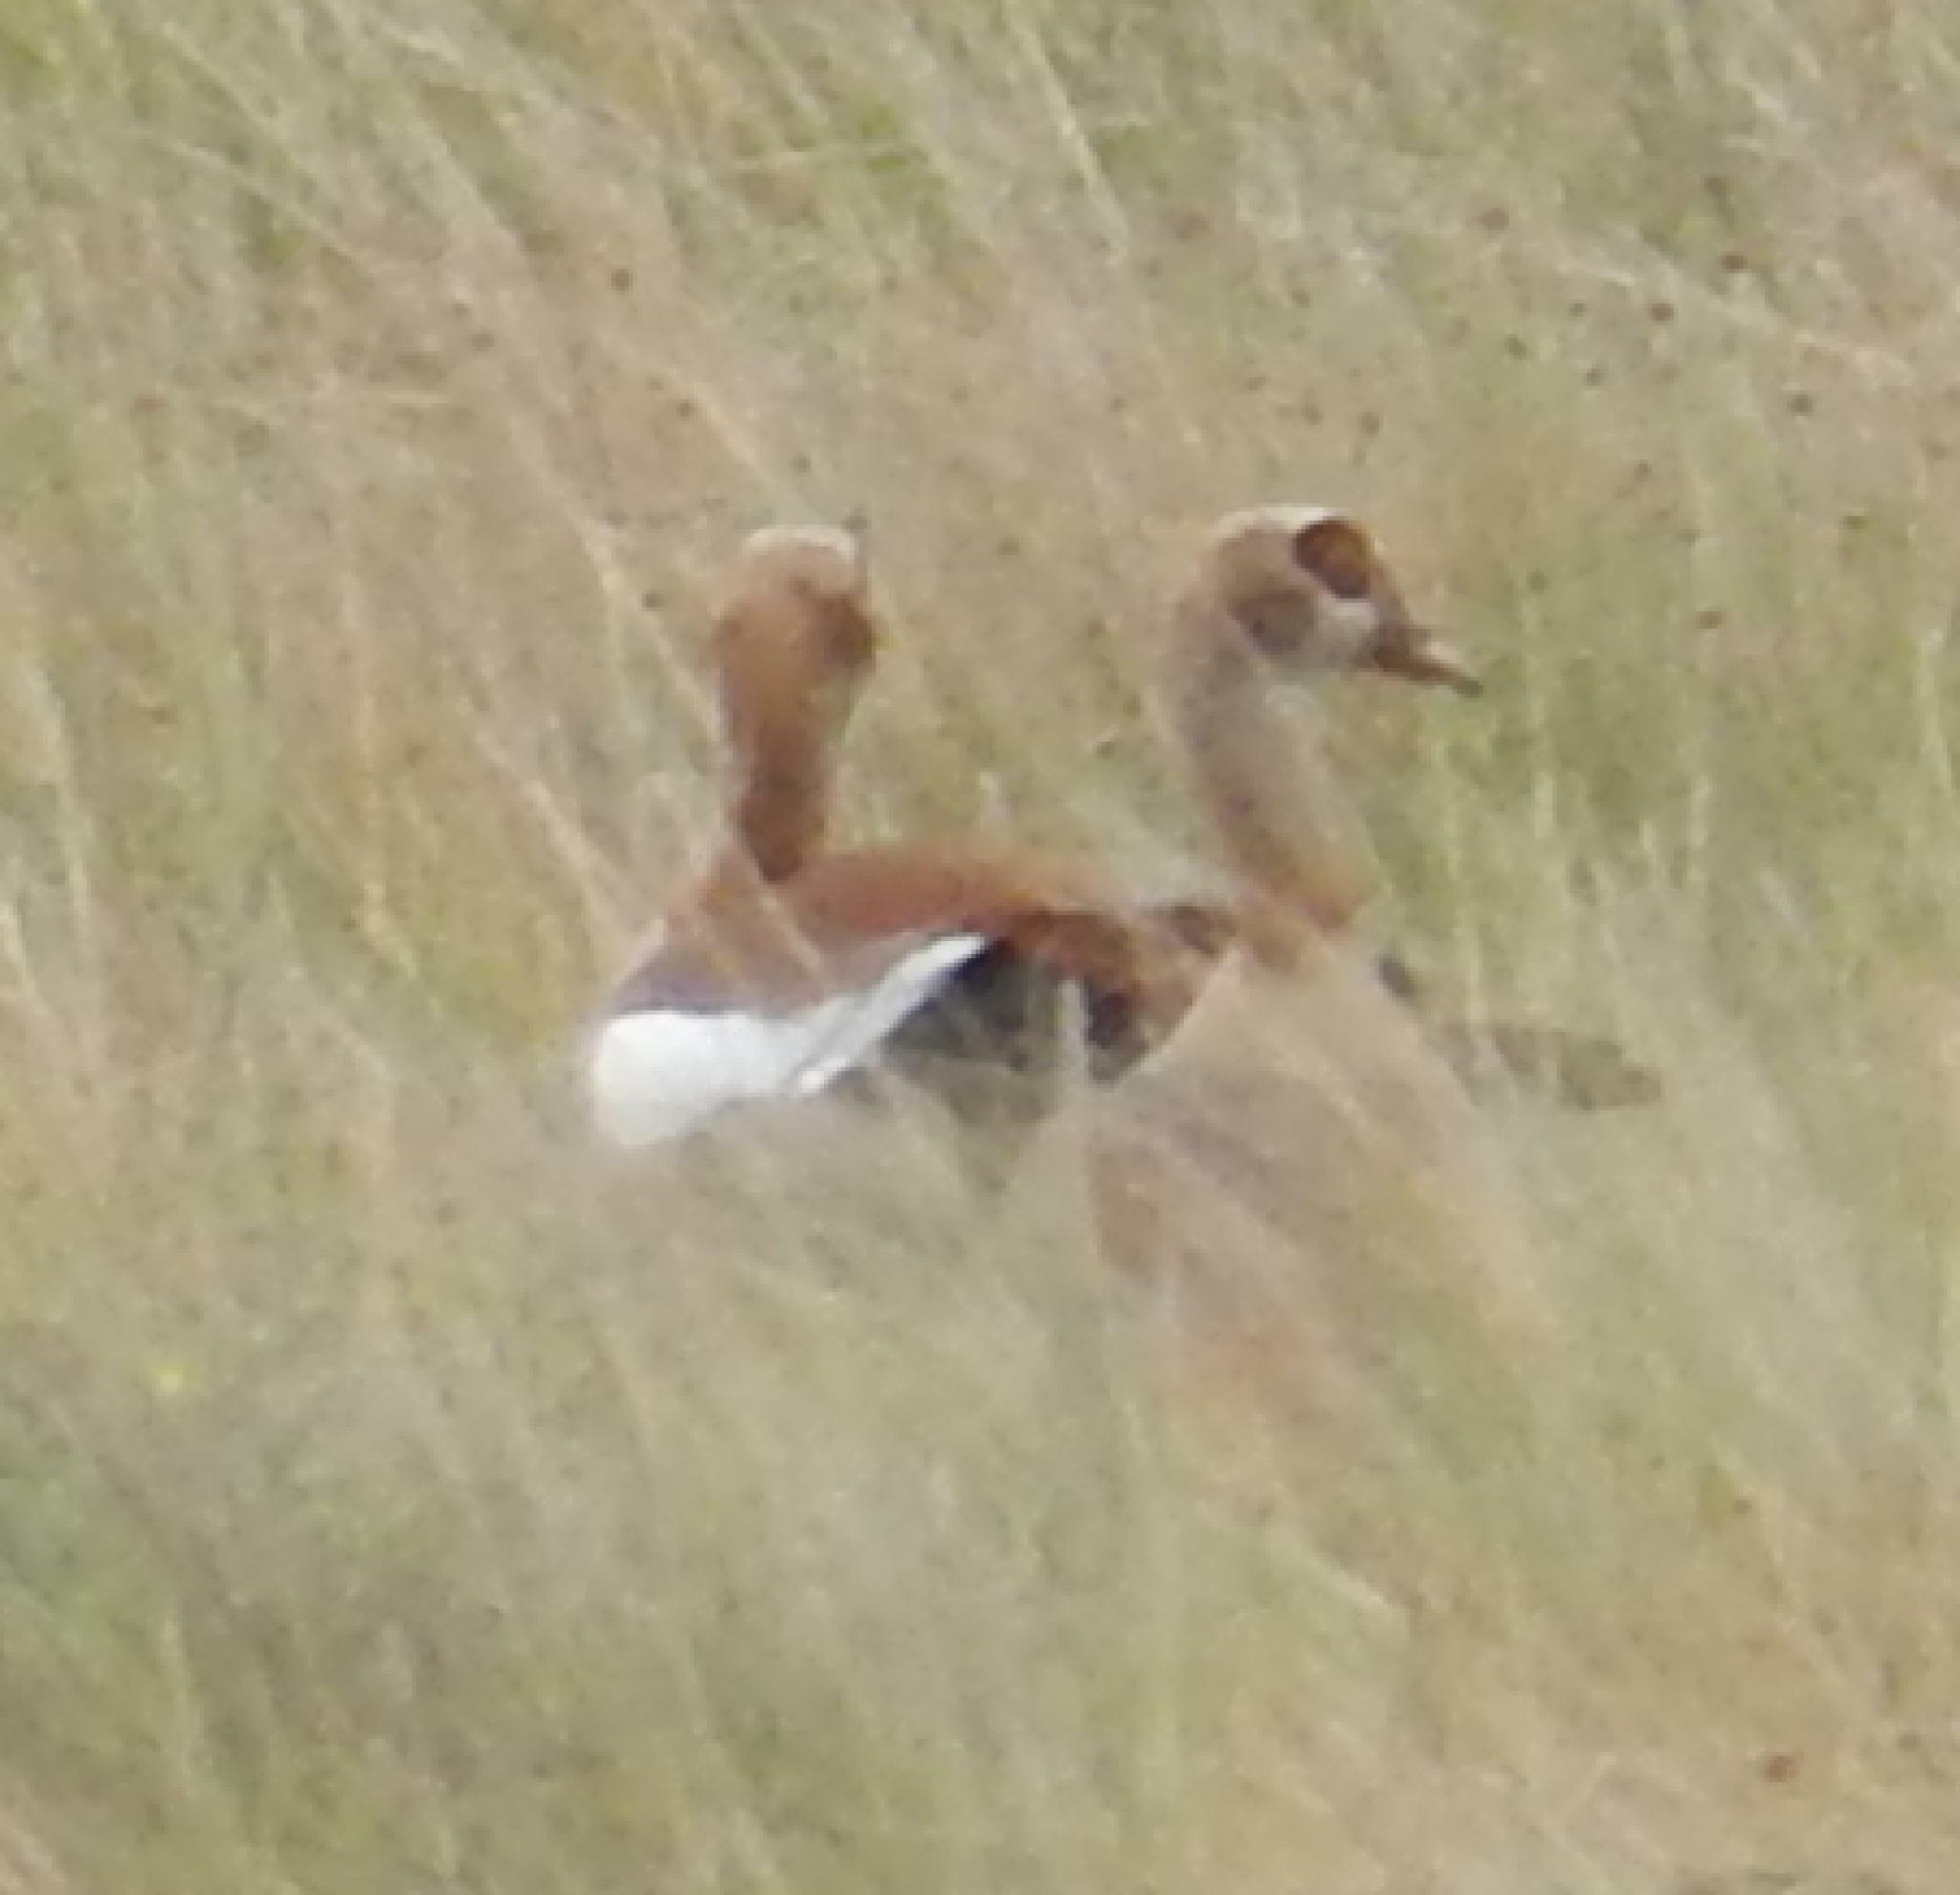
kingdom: Animalia
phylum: Chordata
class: Aves
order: Anseriformes
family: Anatidae
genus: Alopochen
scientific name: Alopochen aegyptiaca
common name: Egyptian goose
